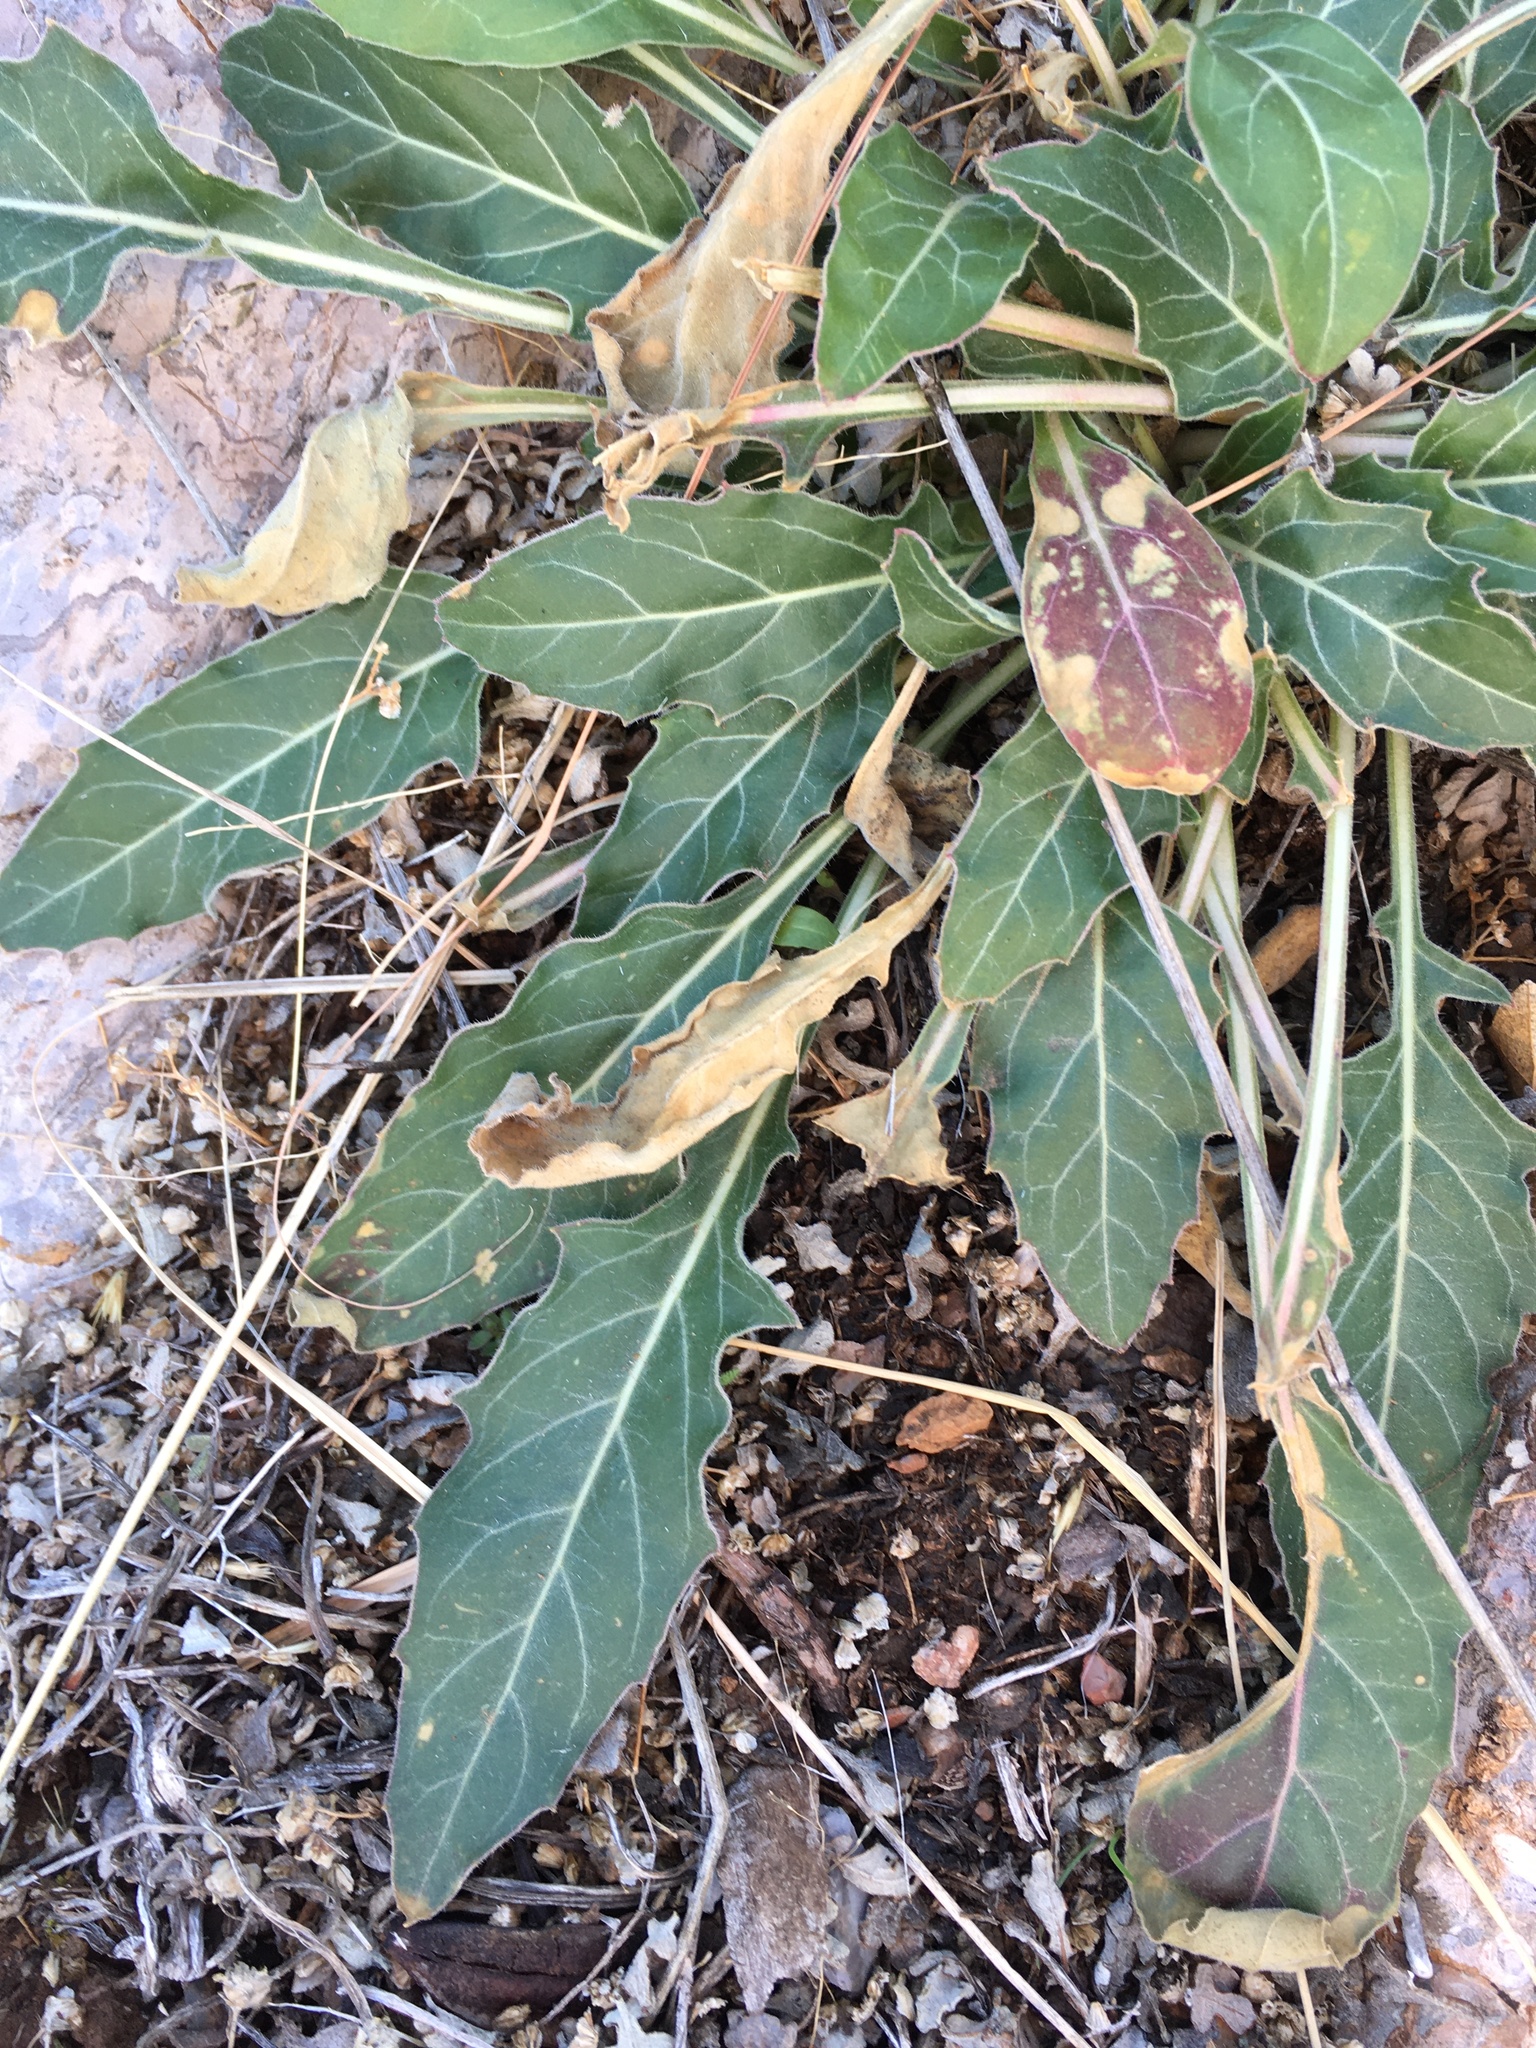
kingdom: Plantae
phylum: Tracheophyta
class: Magnoliopsida
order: Myrtales
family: Onagraceae
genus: Oenothera
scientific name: Oenothera brachycarpa
